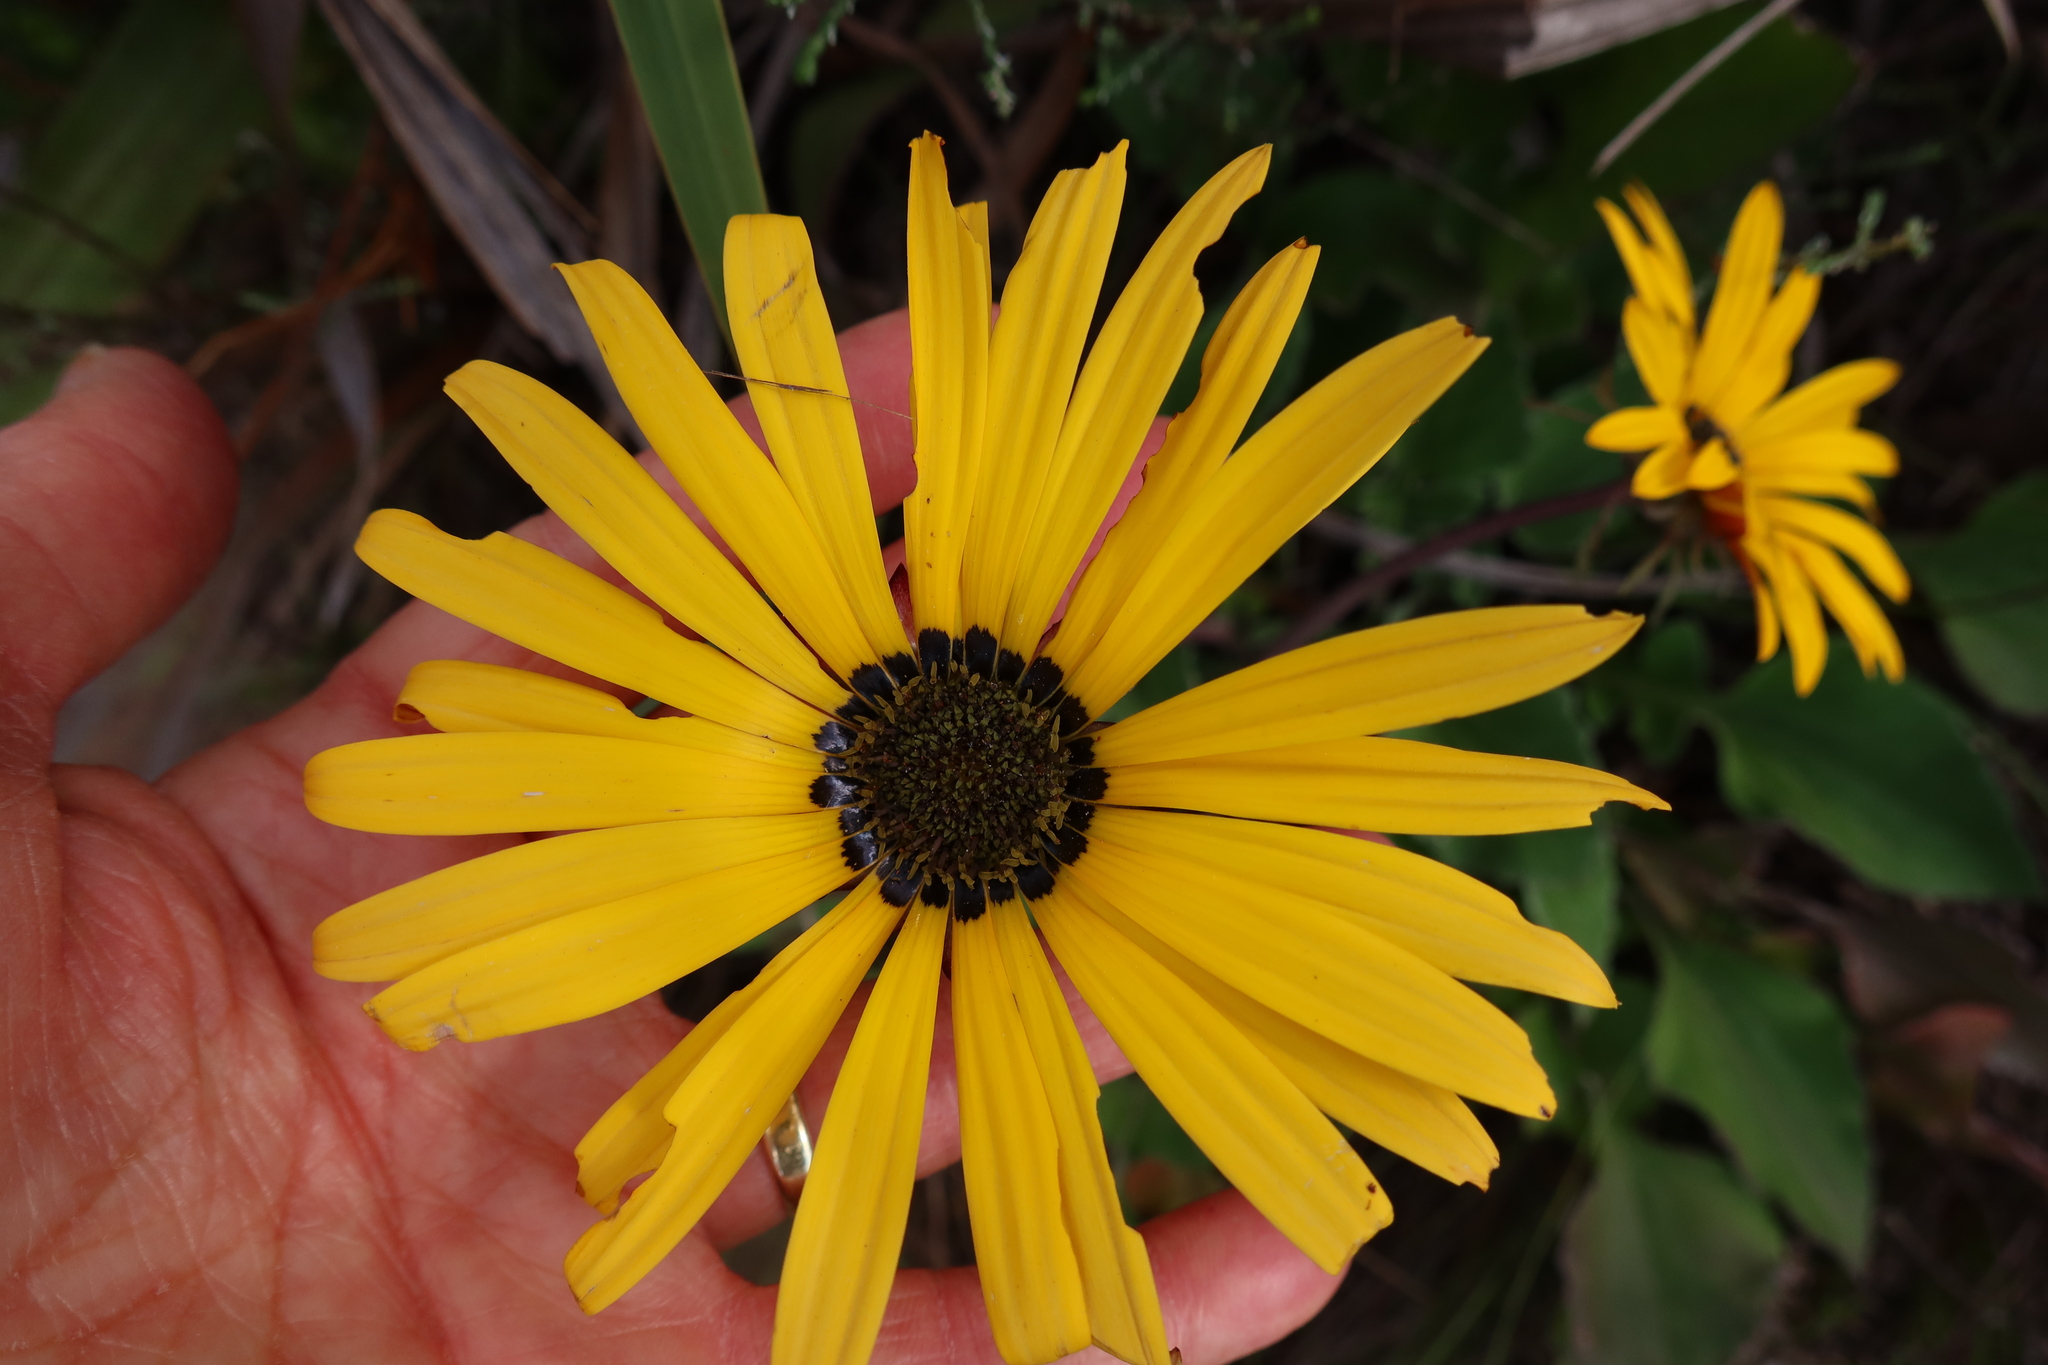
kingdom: Plantae
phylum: Tracheophyta
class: Magnoliopsida
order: Asterales
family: Asteraceae
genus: Arctotis
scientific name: Arctotis acaulis
